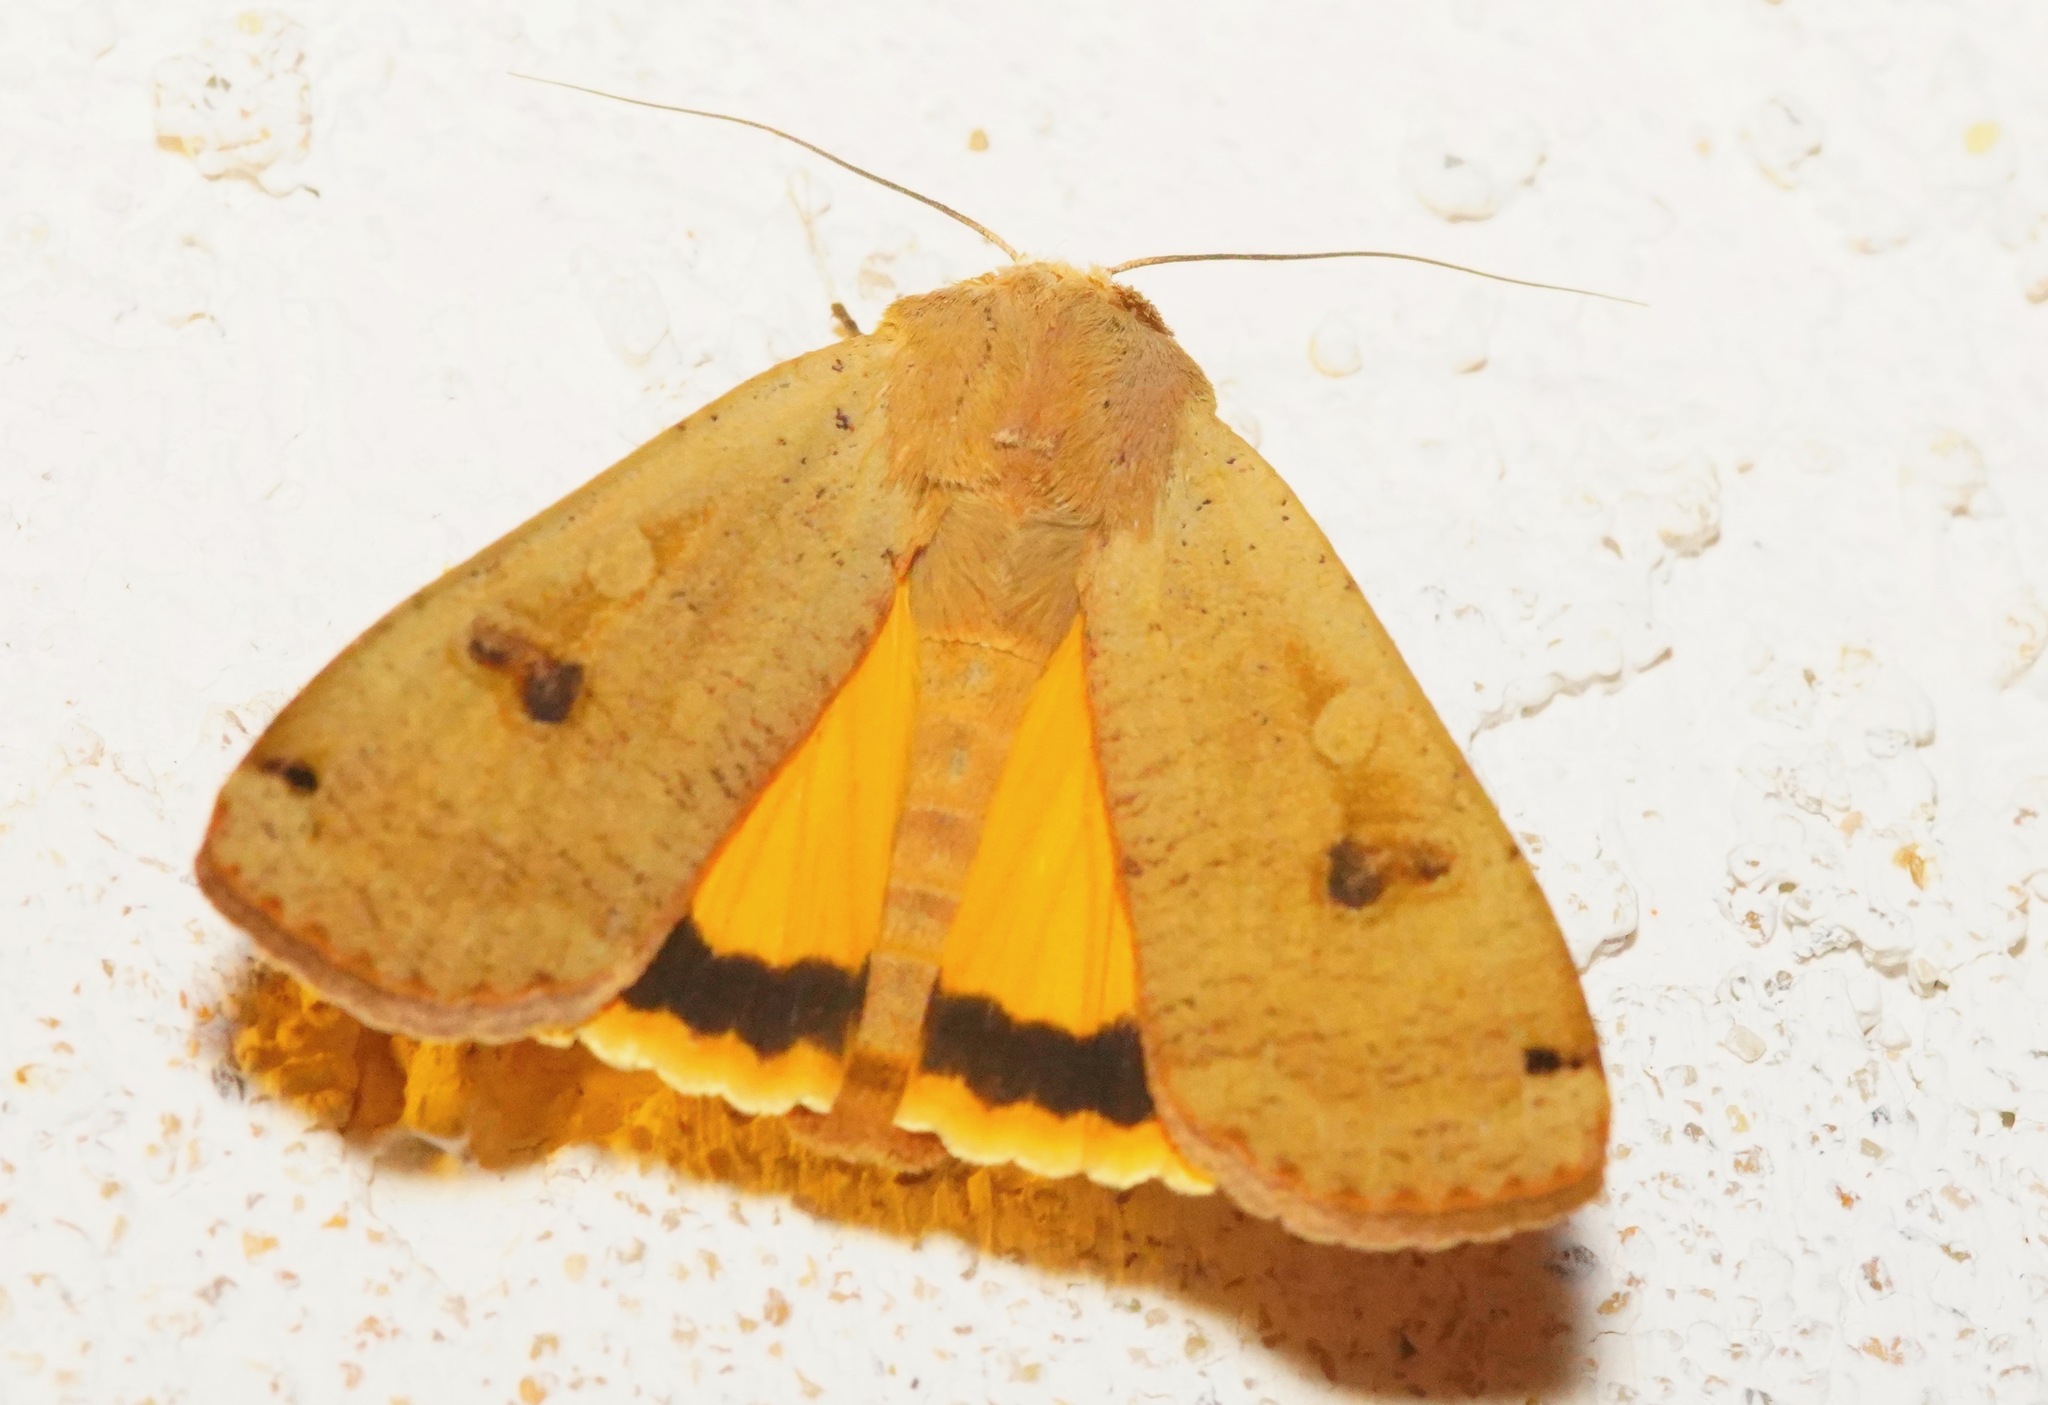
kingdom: Animalia
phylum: Arthropoda
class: Insecta
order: Lepidoptera
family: Noctuidae
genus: Noctua
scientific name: Noctua pronuba
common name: Large yellow underwing
